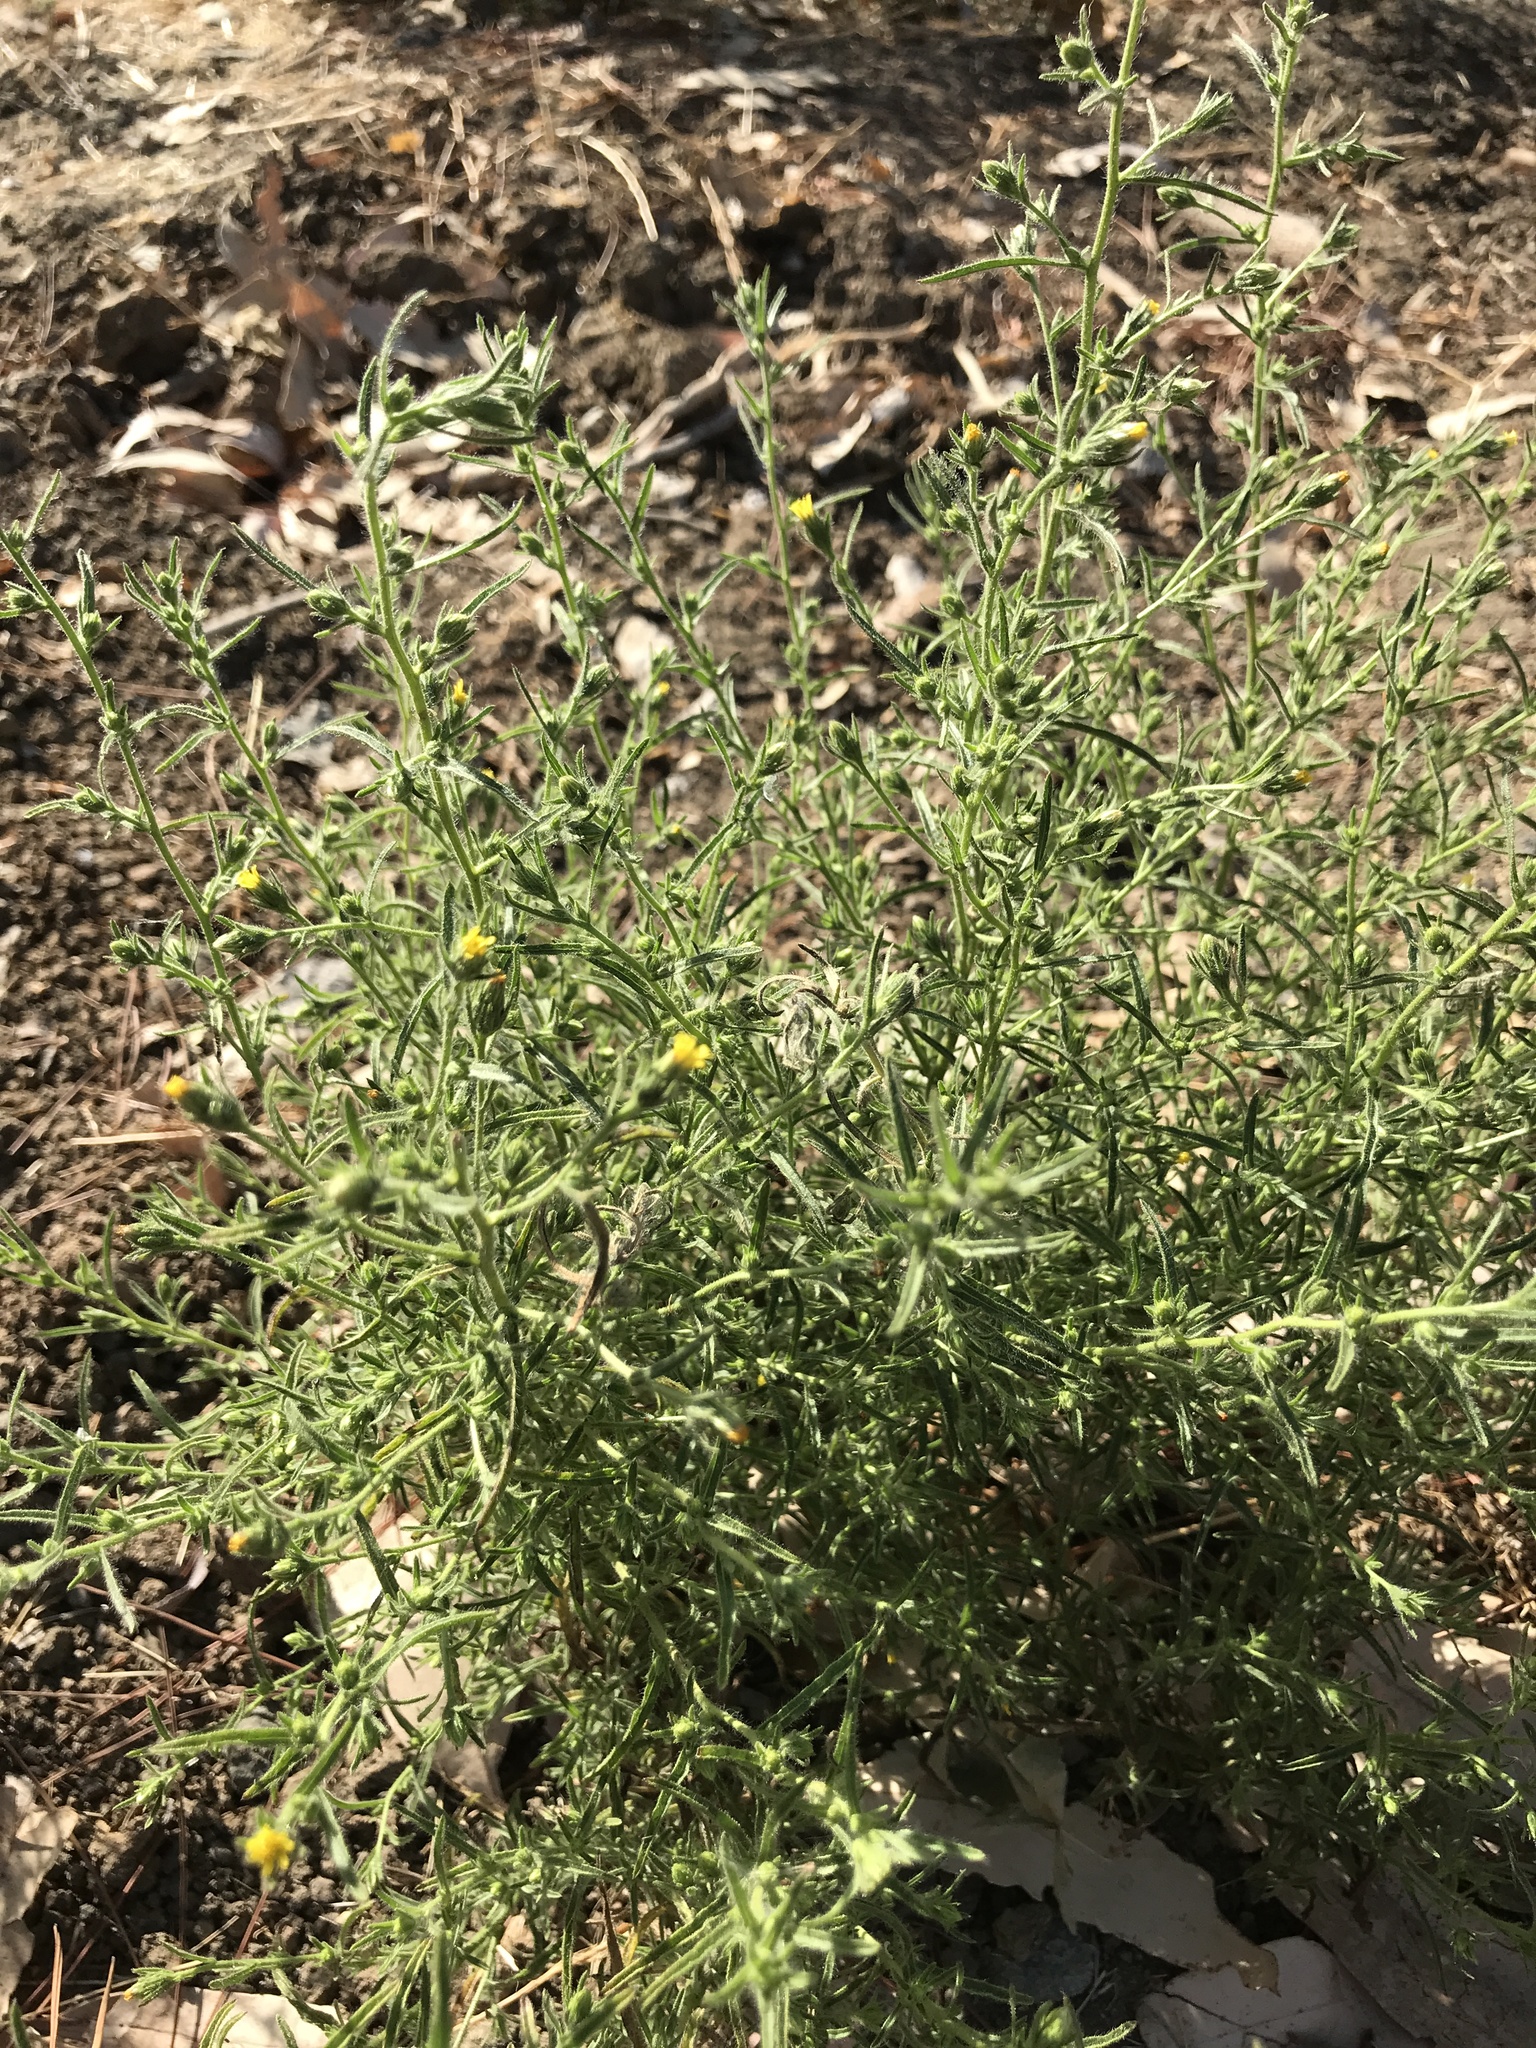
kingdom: Plantae
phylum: Tracheophyta
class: Magnoliopsida
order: Asterales
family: Asteraceae
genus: Dittrichia
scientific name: Dittrichia graveolens
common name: Stinking fleabane
